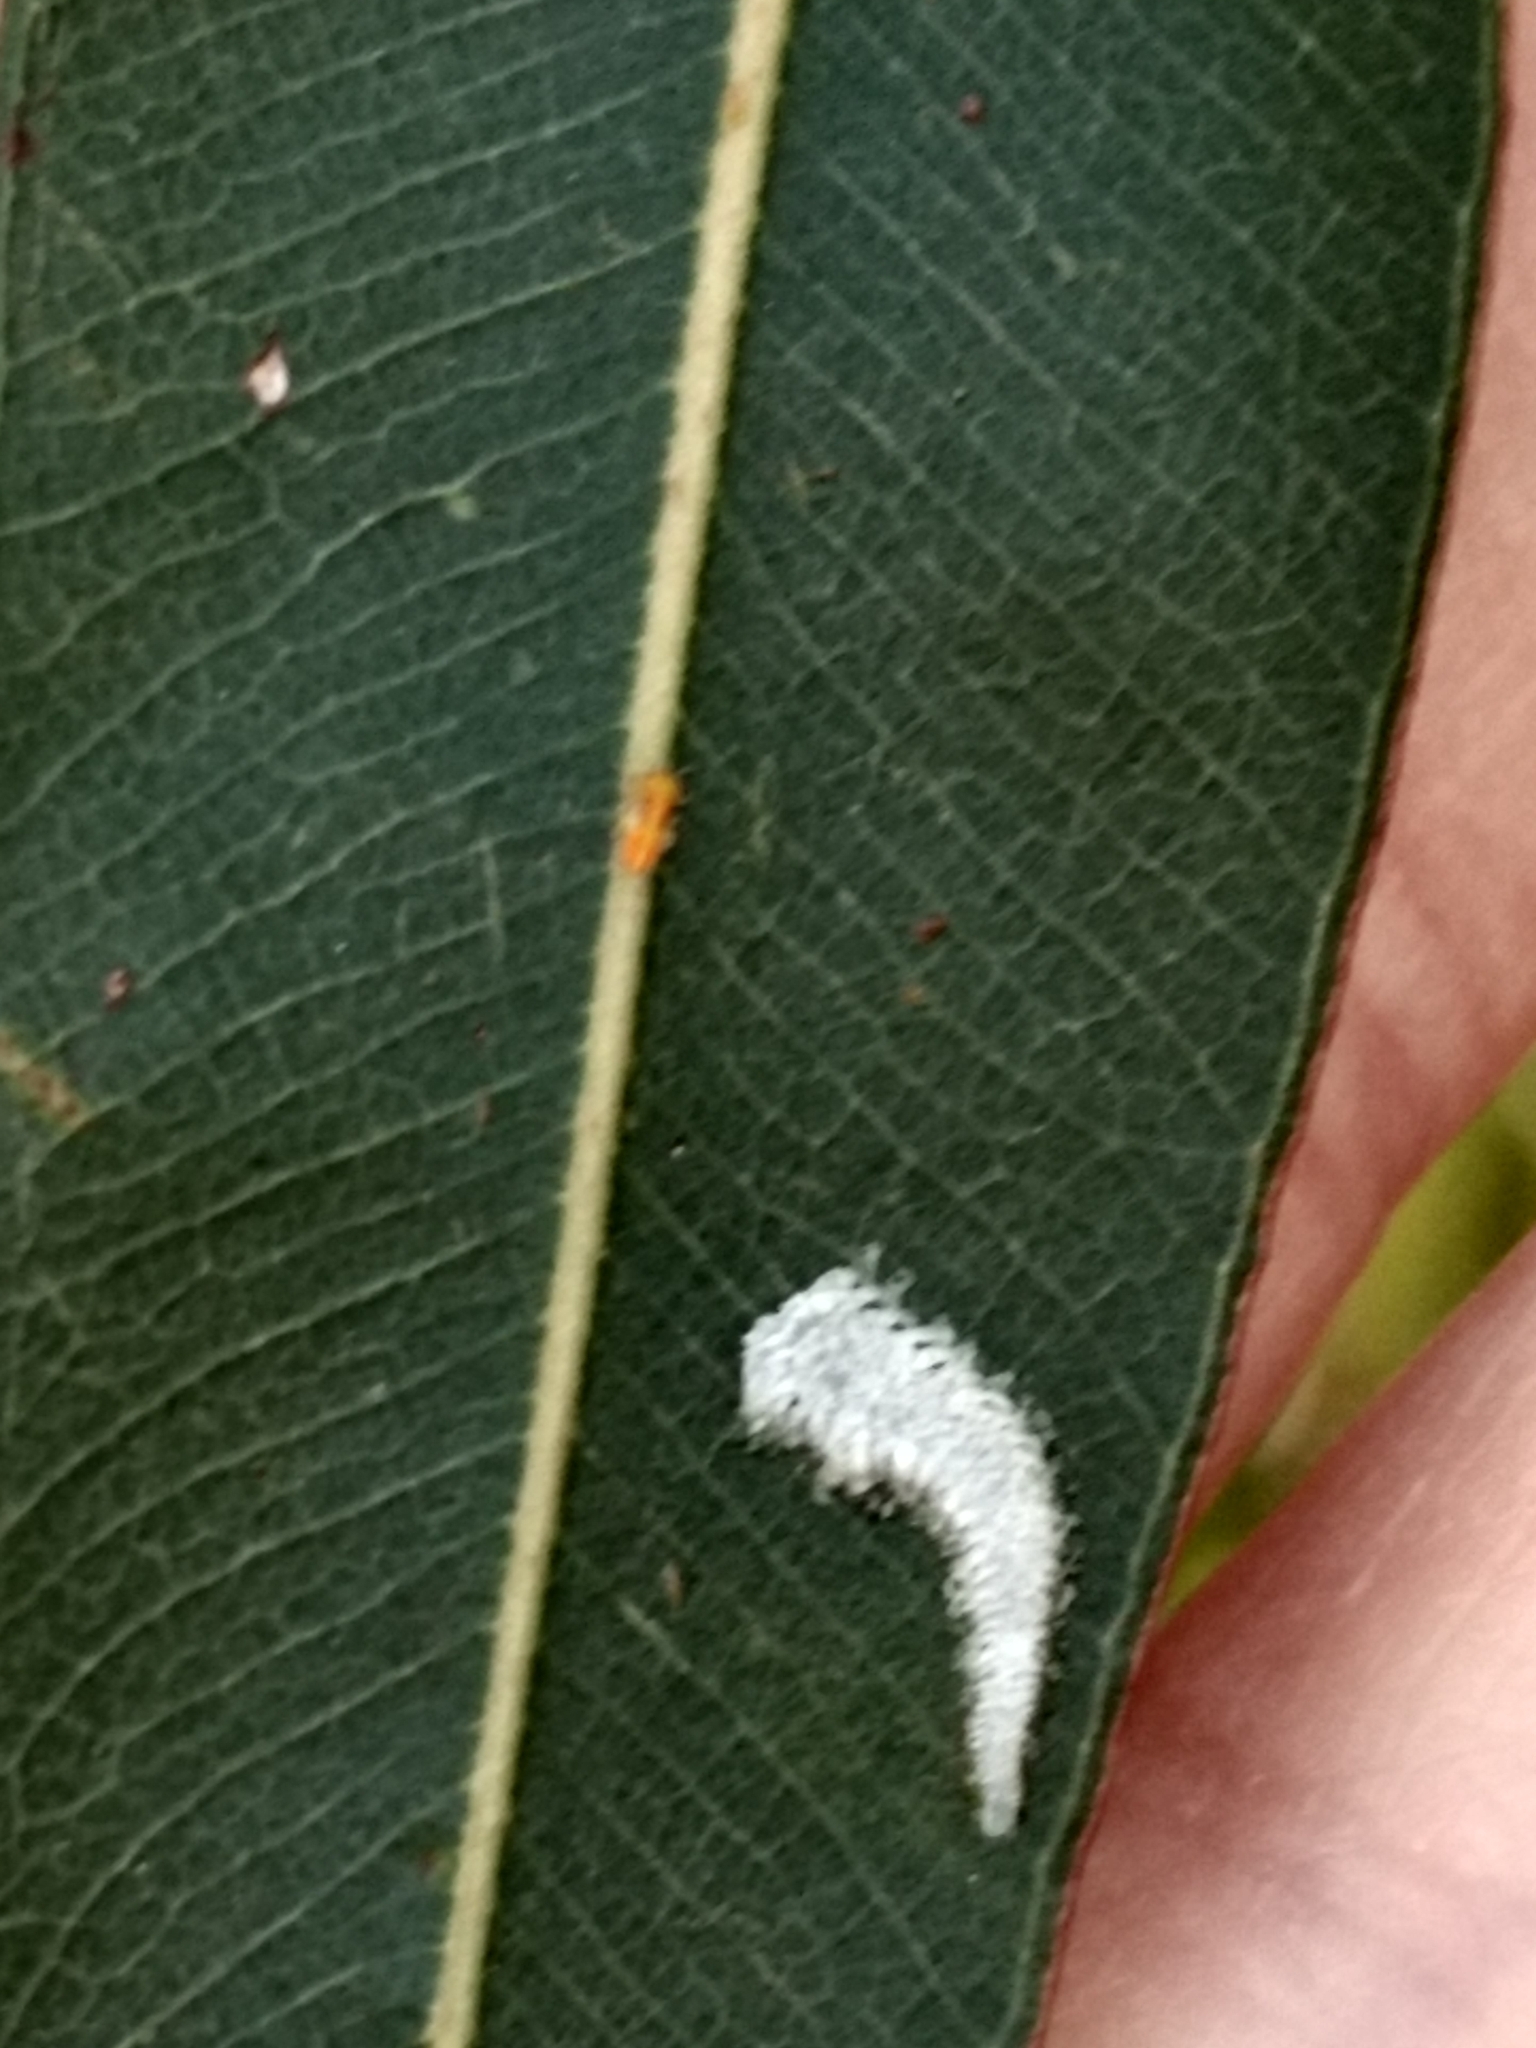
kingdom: Animalia
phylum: Arthropoda
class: Insecta
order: Hemiptera
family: Aphalaridae
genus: Eucalyptolyma
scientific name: Eucalyptolyma maideni
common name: Spotted gum lerp psyllid
